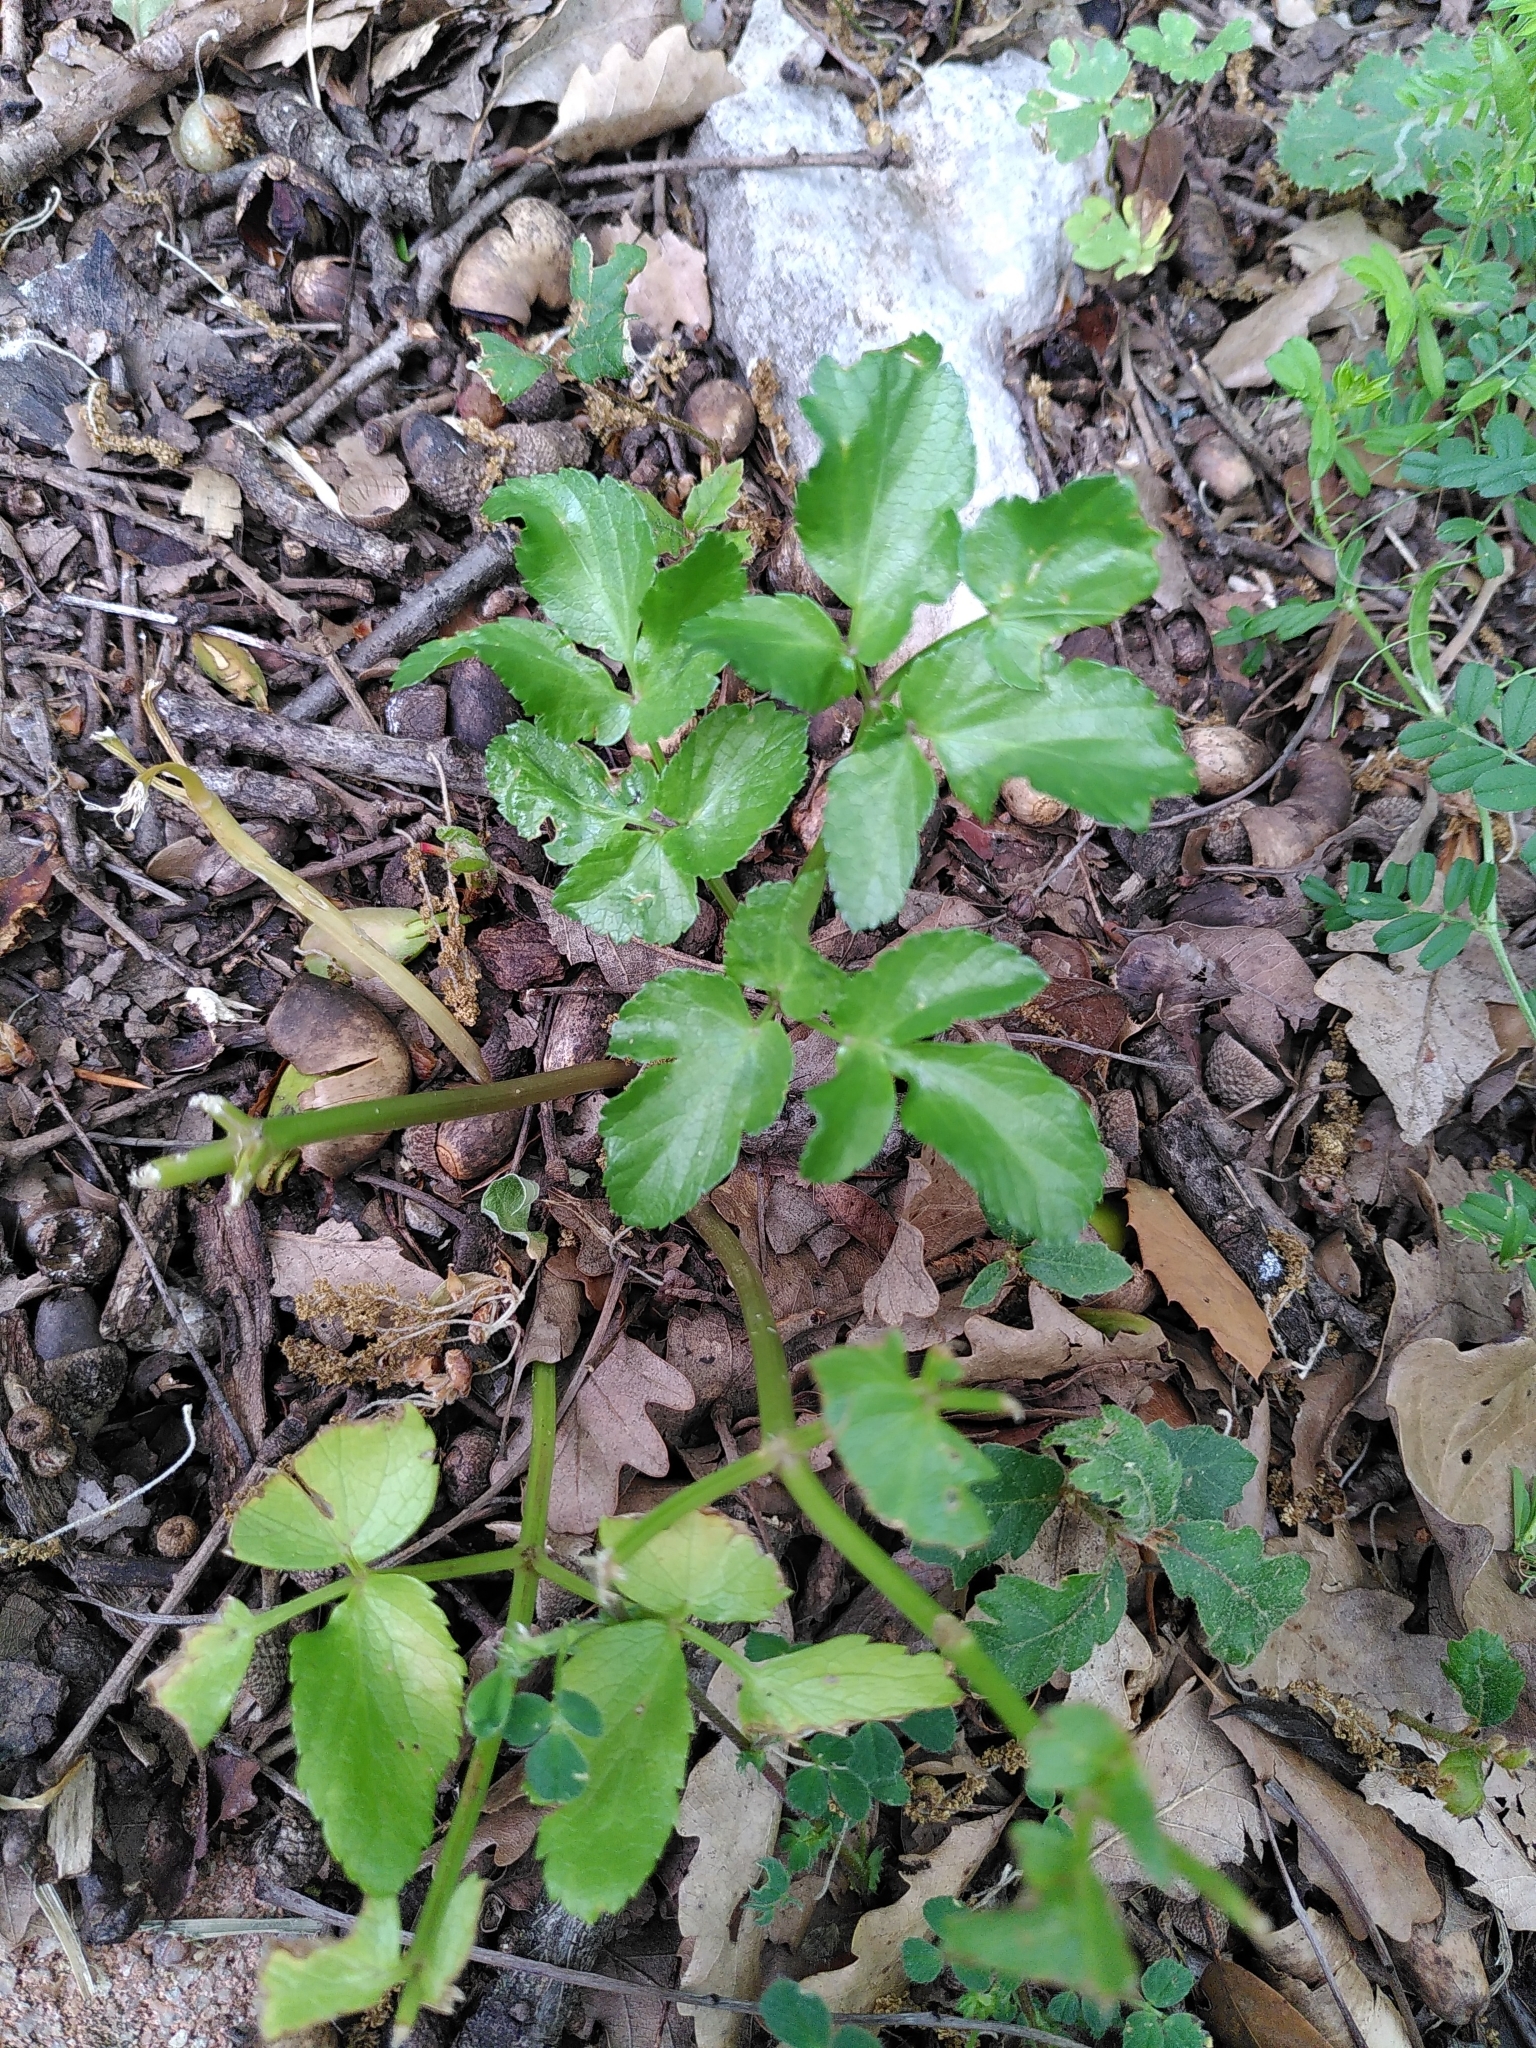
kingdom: Plantae
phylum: Tracheophyta
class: Magnoliopsida
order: Apiales
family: Apiaceae
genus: Smyrnium
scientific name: Smyrnium olusatrum
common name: Alexanders
